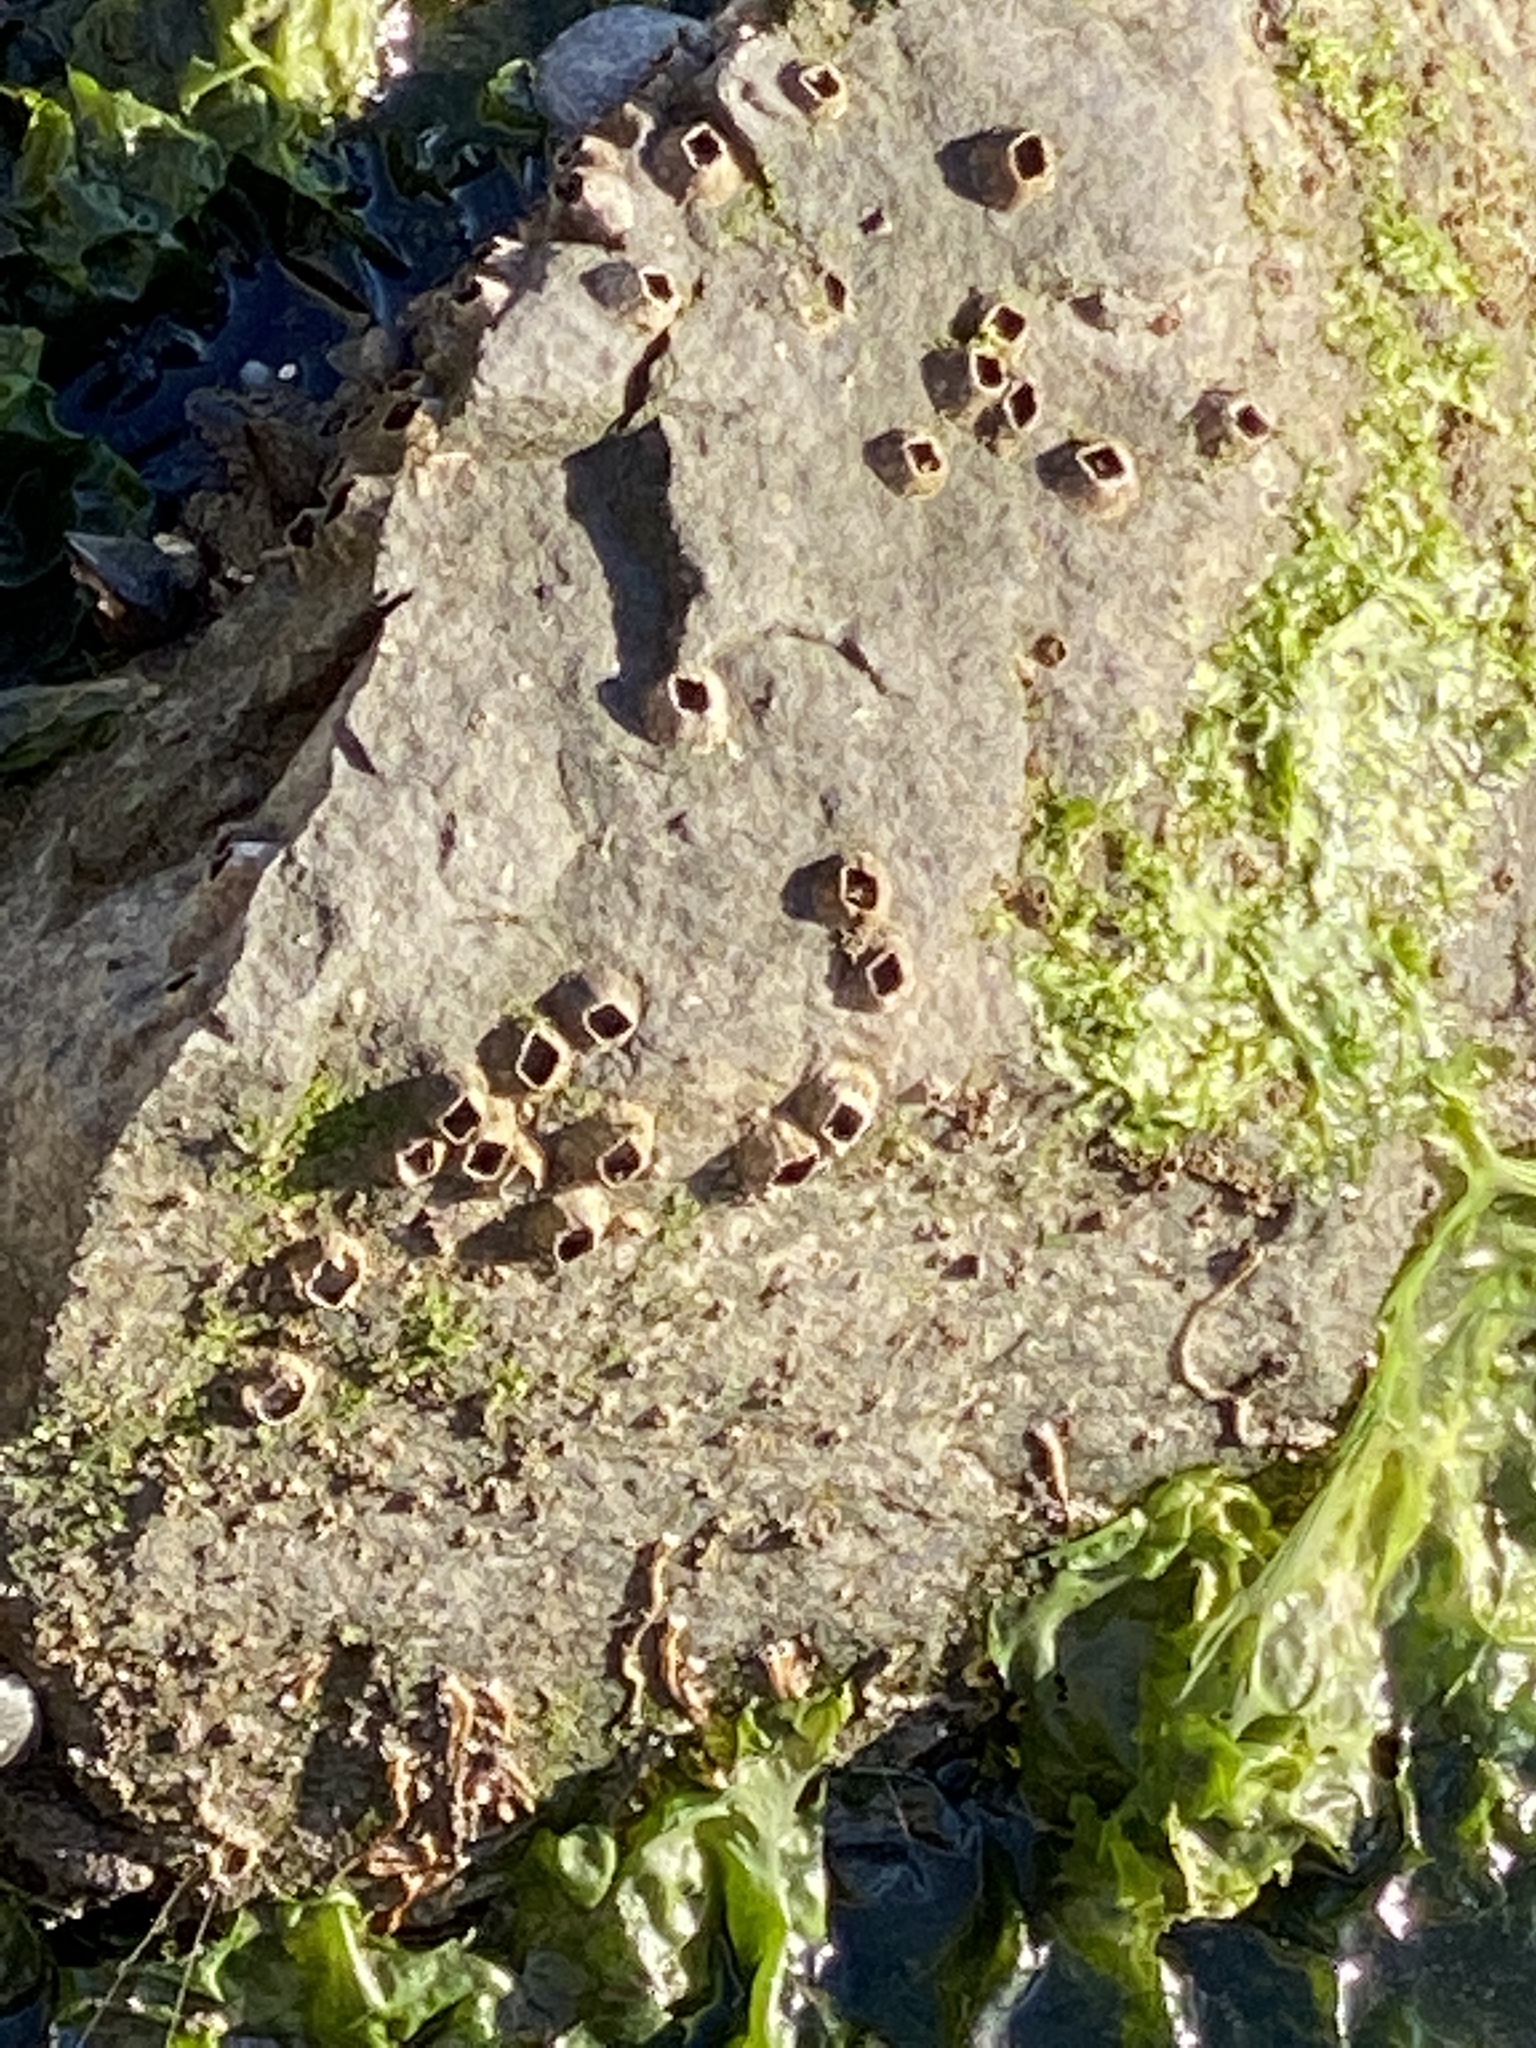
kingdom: Animalia
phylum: Arthropoda
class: Maxillopoda
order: Sessilia
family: Balanidae
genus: Amphibalanus
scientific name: Amphibalanus amphitrite
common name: Striped acorn barnacle
